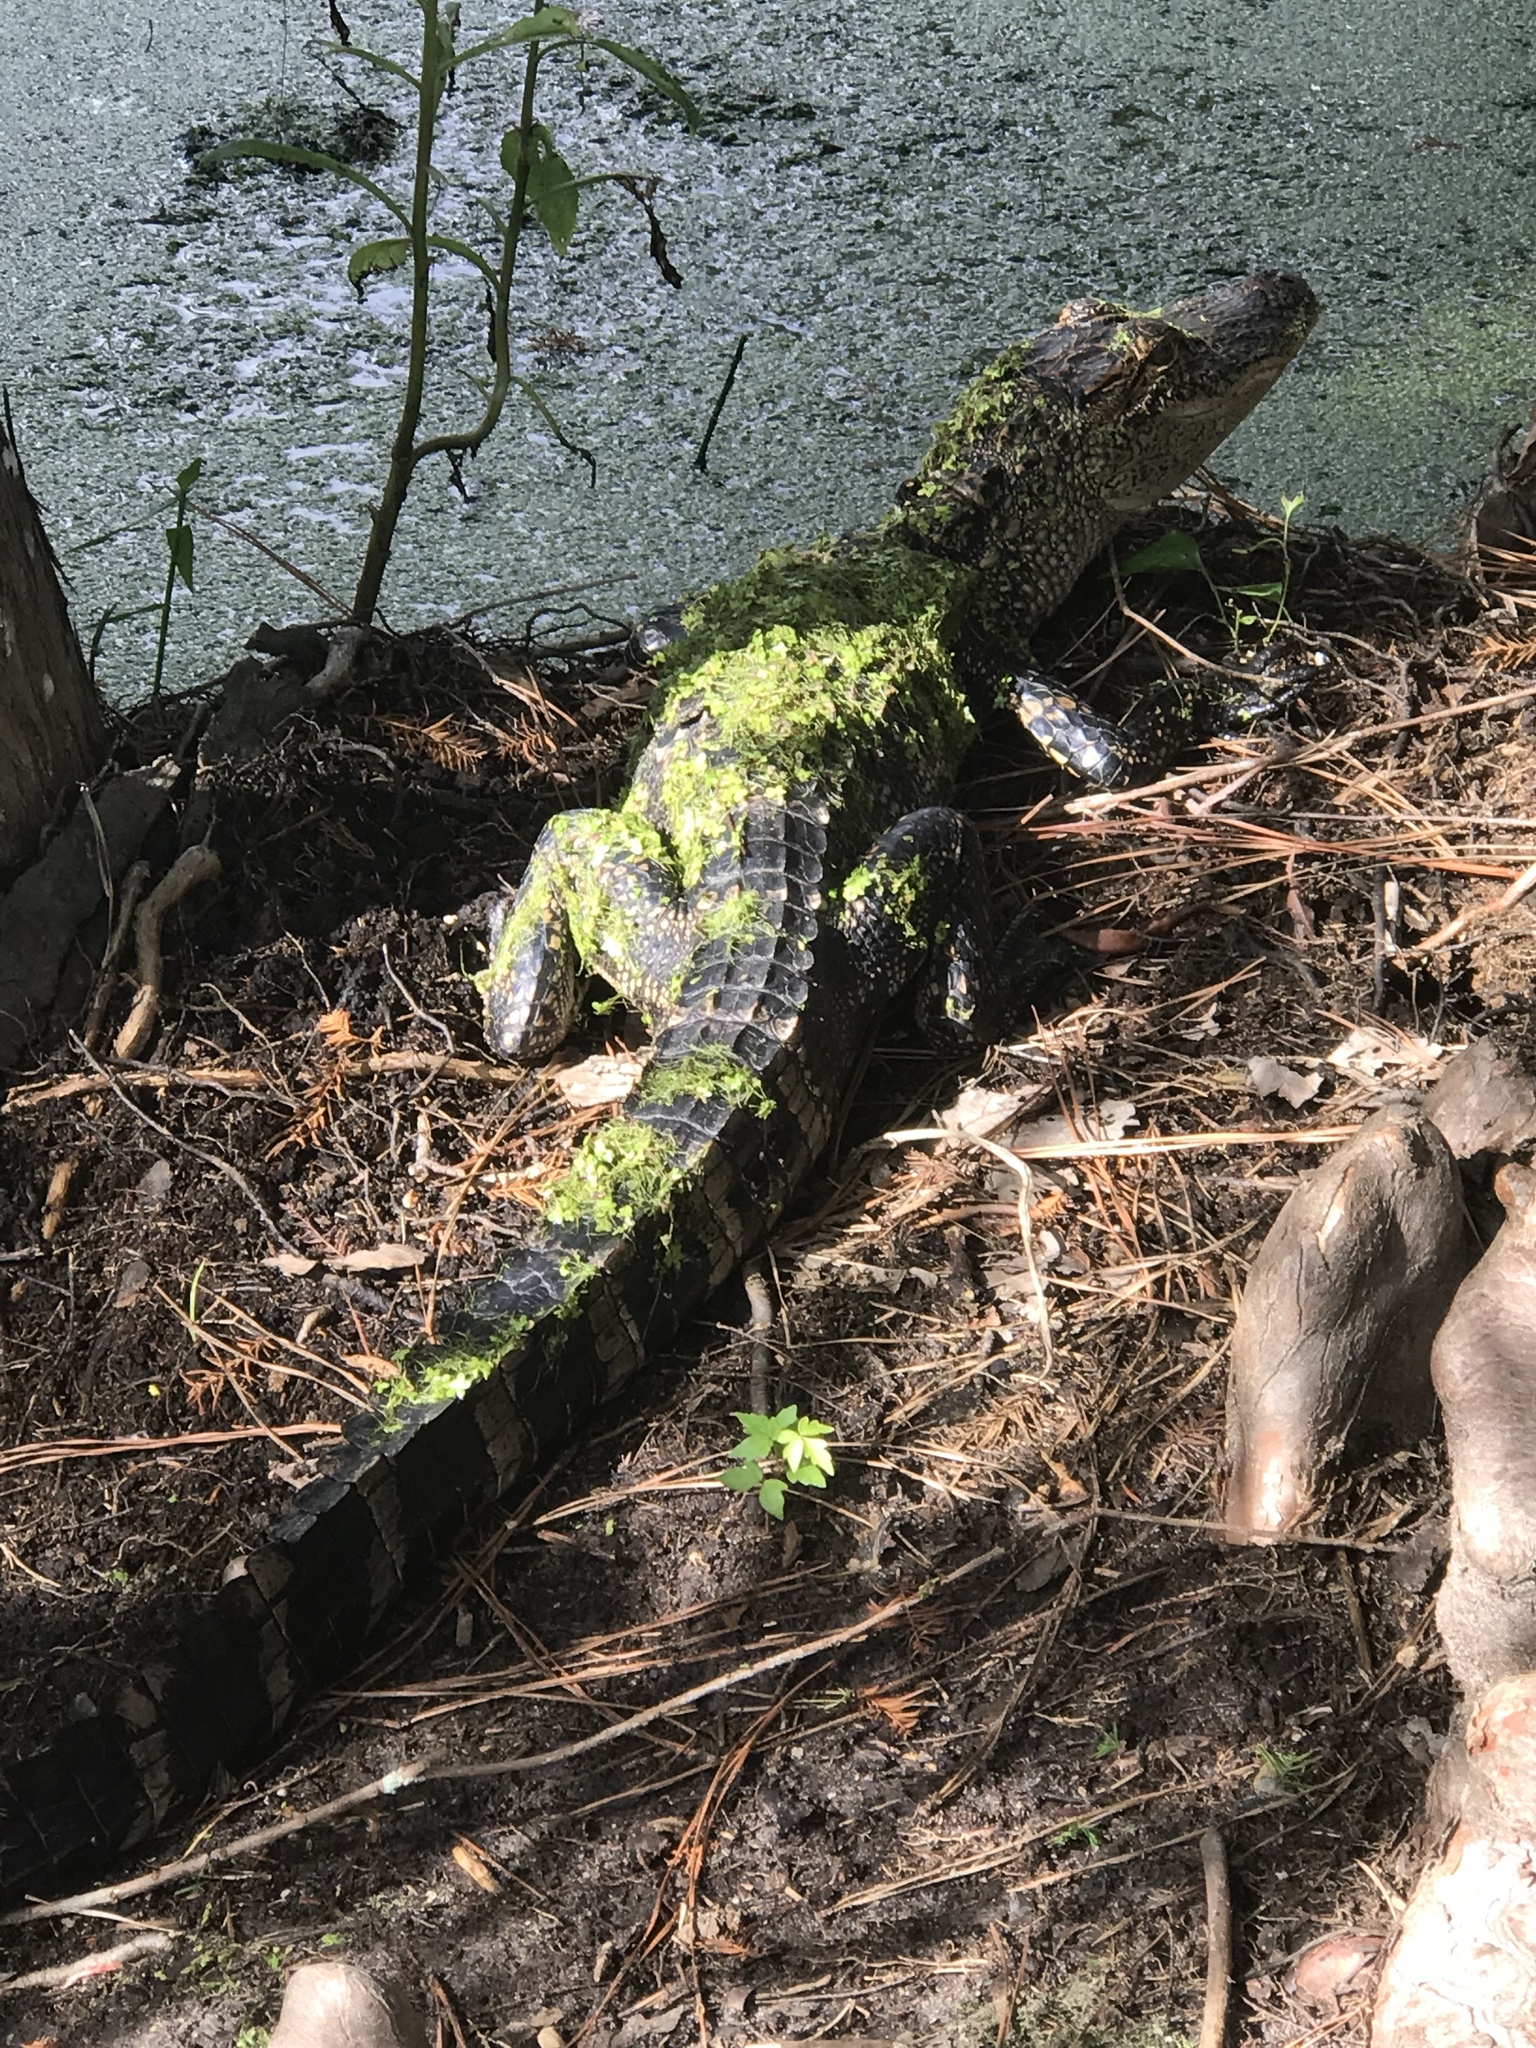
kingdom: Animalia
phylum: Chordata
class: Crocodylia
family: Alligatoridae
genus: Alligator
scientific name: Alligator mississippiensis
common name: American alligator
